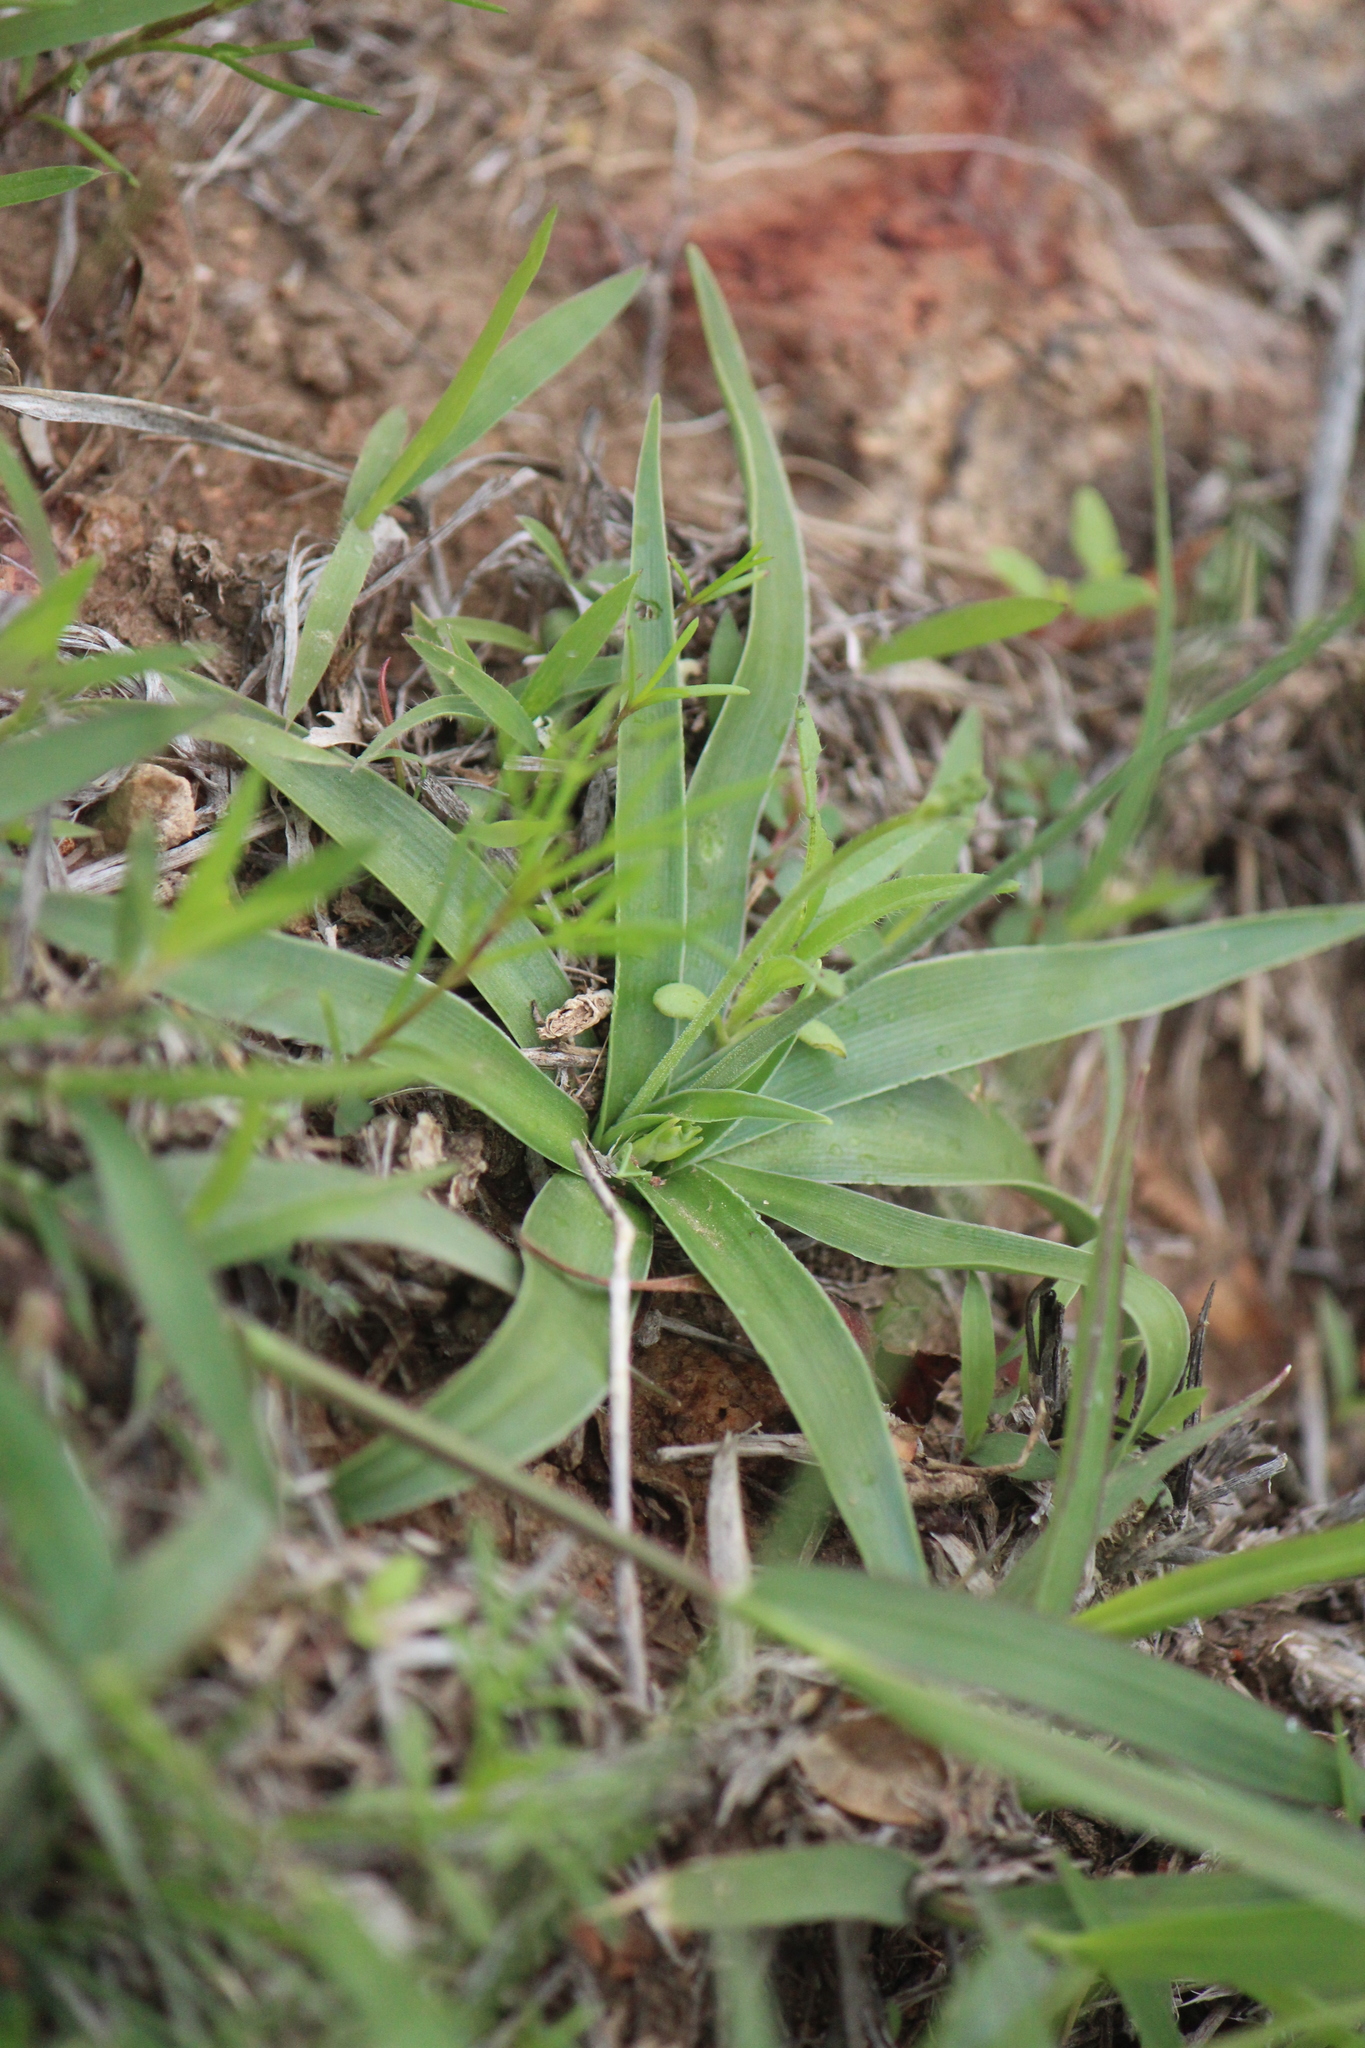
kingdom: Plantae
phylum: Tracheophyta
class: Liliopsida
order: Asparagales
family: Asparagaceae
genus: Echeandia
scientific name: Echeandia nana
